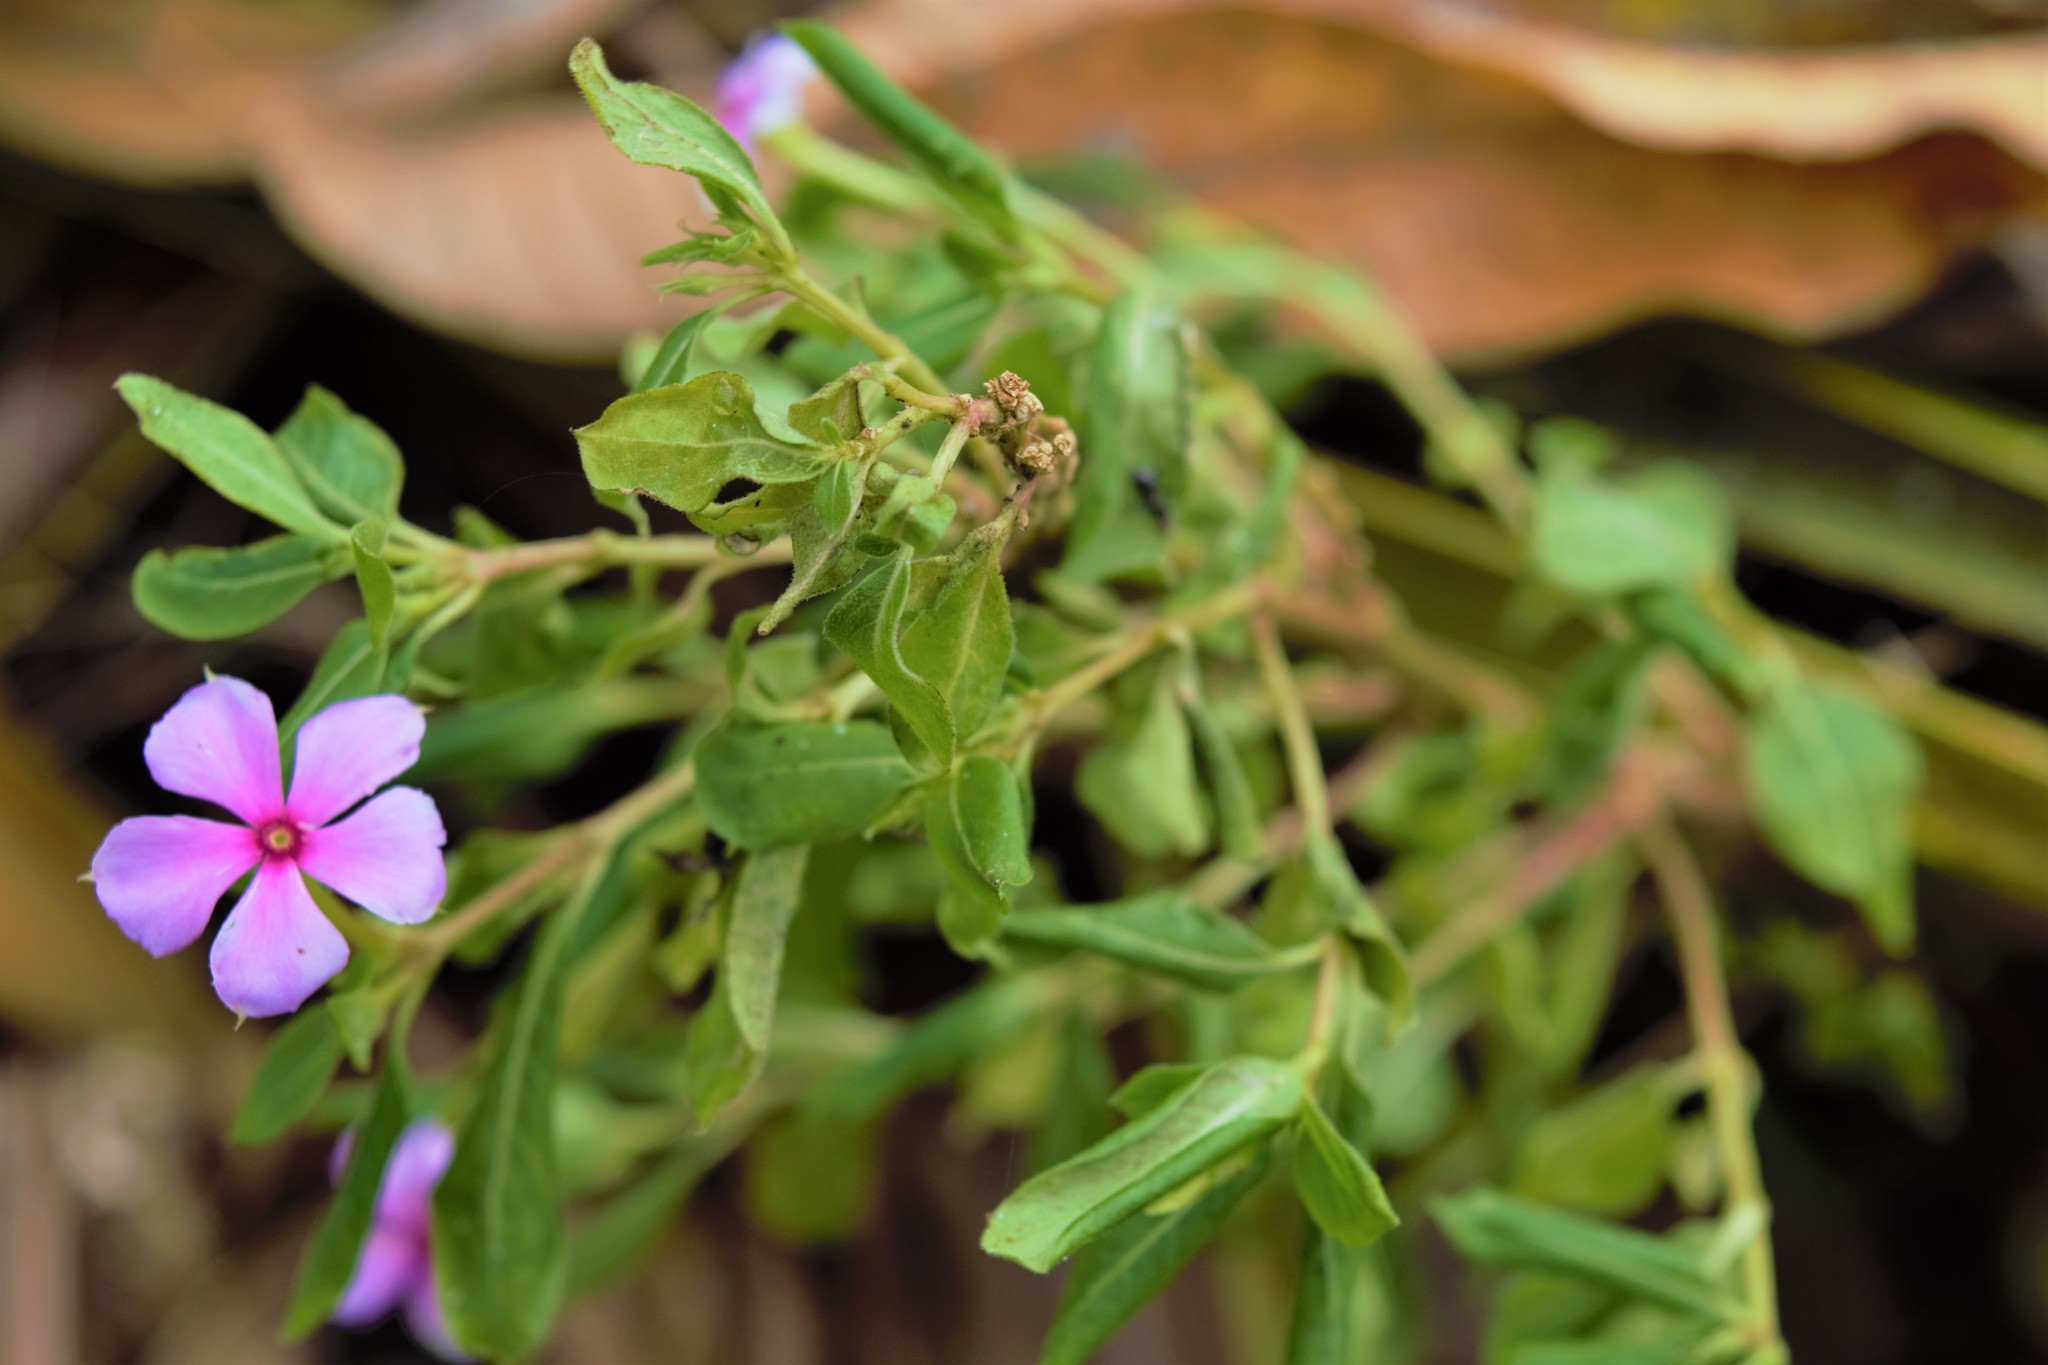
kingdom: Plantae
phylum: Tracheophyta
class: Magnoliopsida
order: Gentianales
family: Apocynaceae
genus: Catharanthus
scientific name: Catharanthus roseus
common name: Madagascar periwinkle
